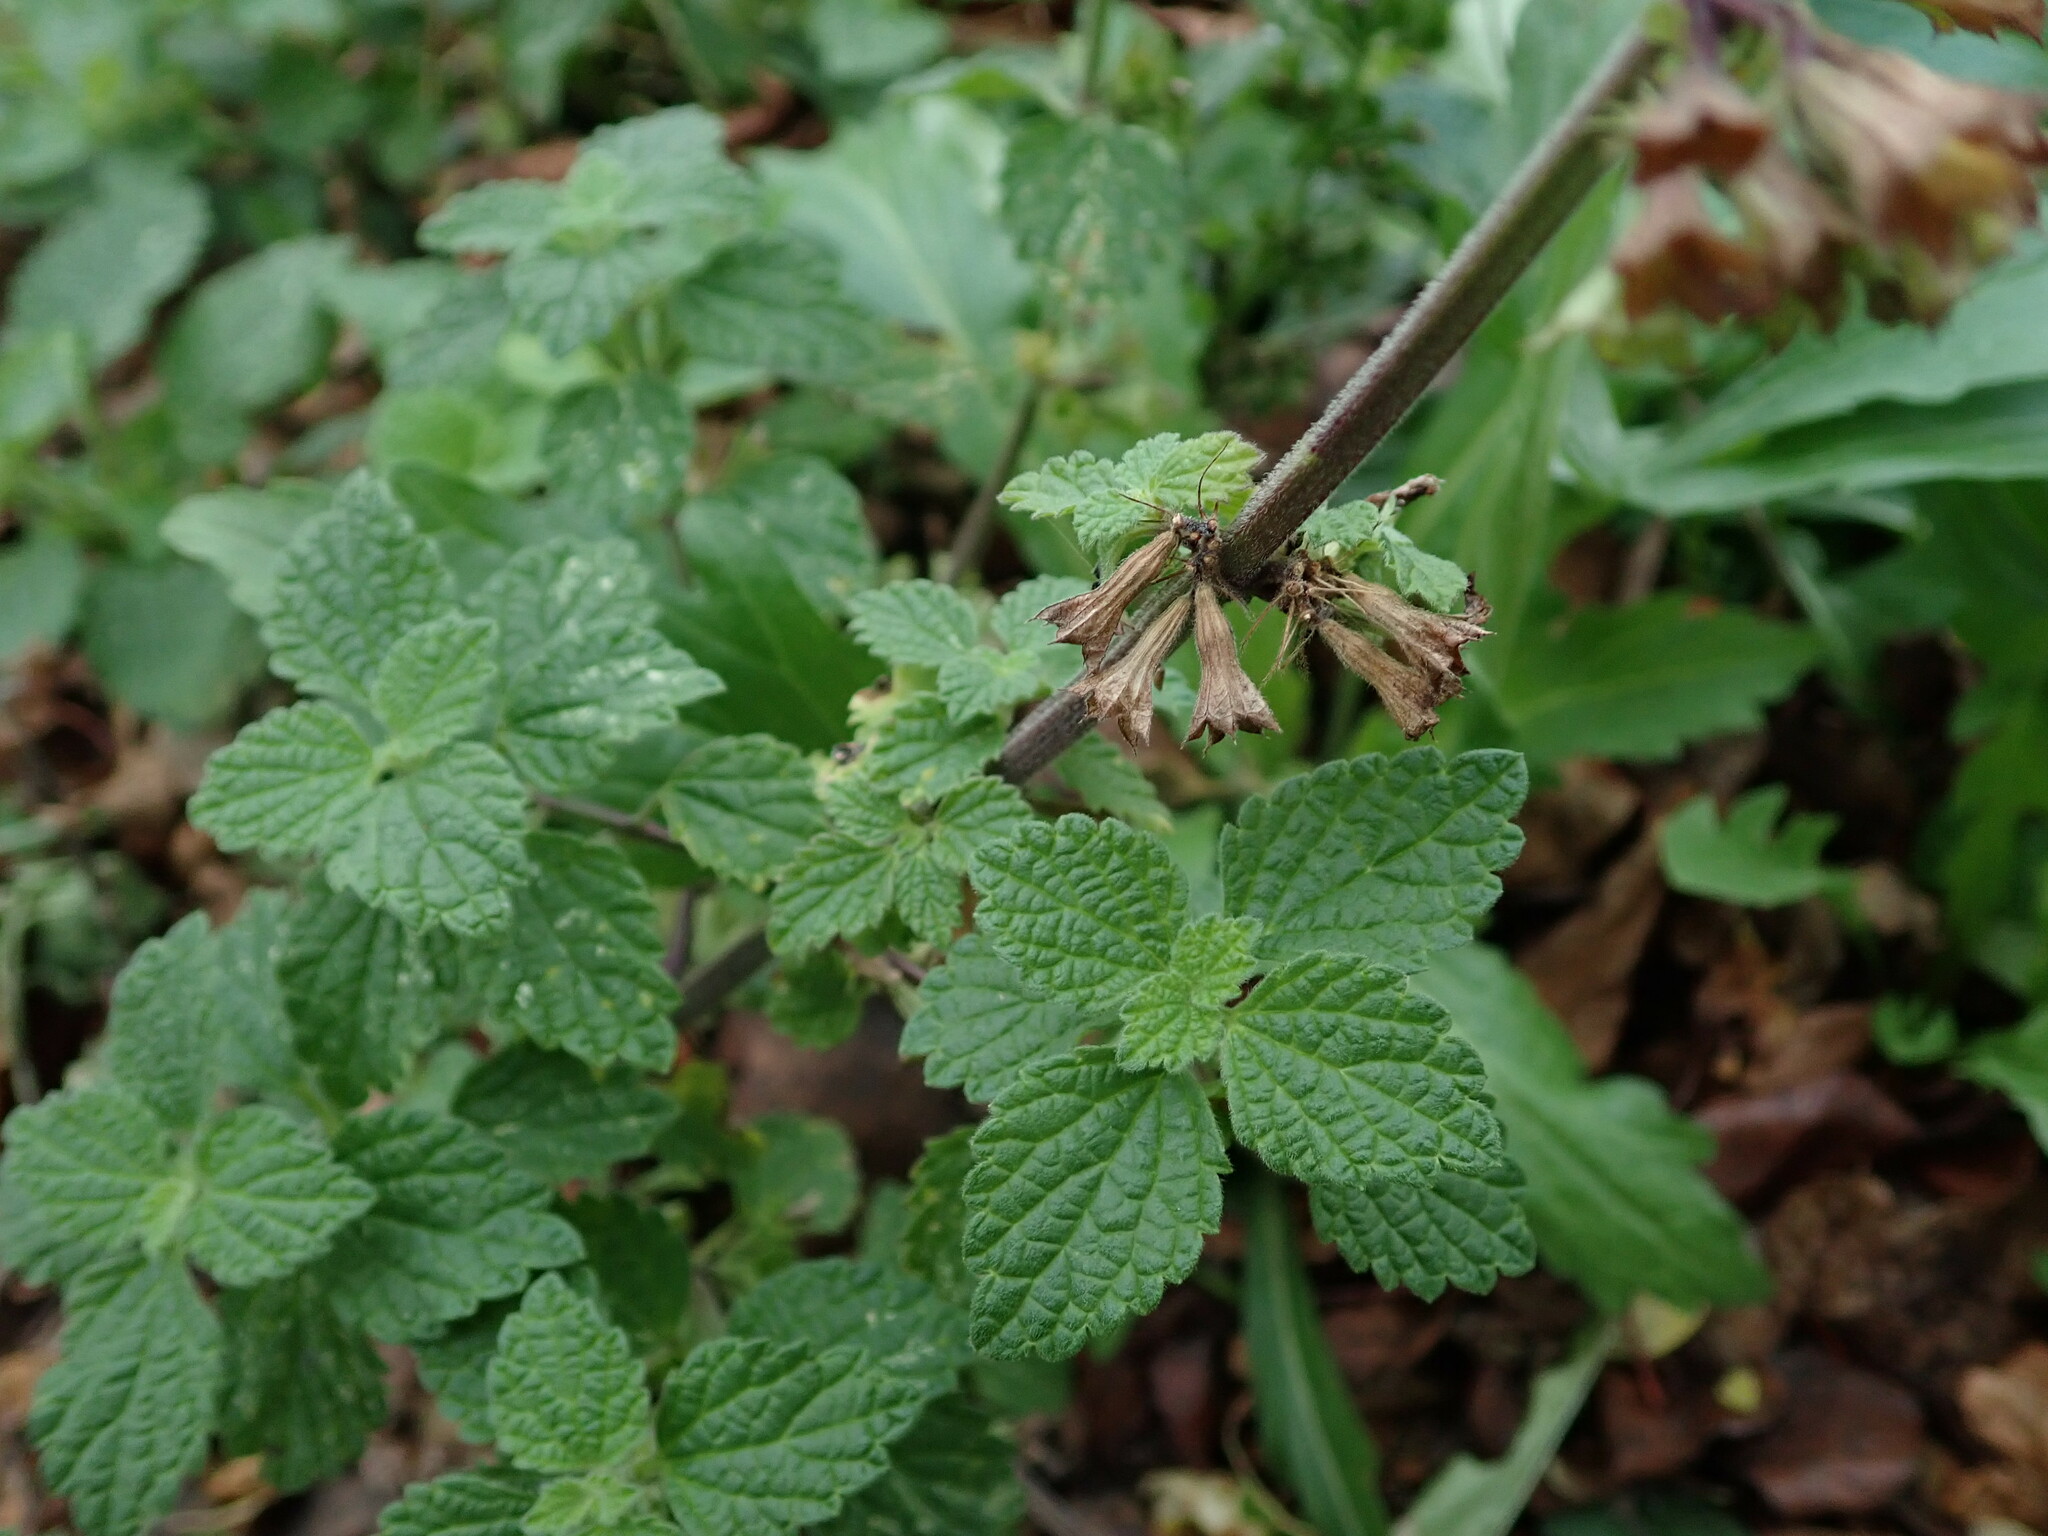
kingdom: Plantae
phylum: Tracheophyta
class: Magnoliopsida
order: Lamiales
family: Lamiaceae
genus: Ballota
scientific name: Ballota nigra
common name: Black horehound
